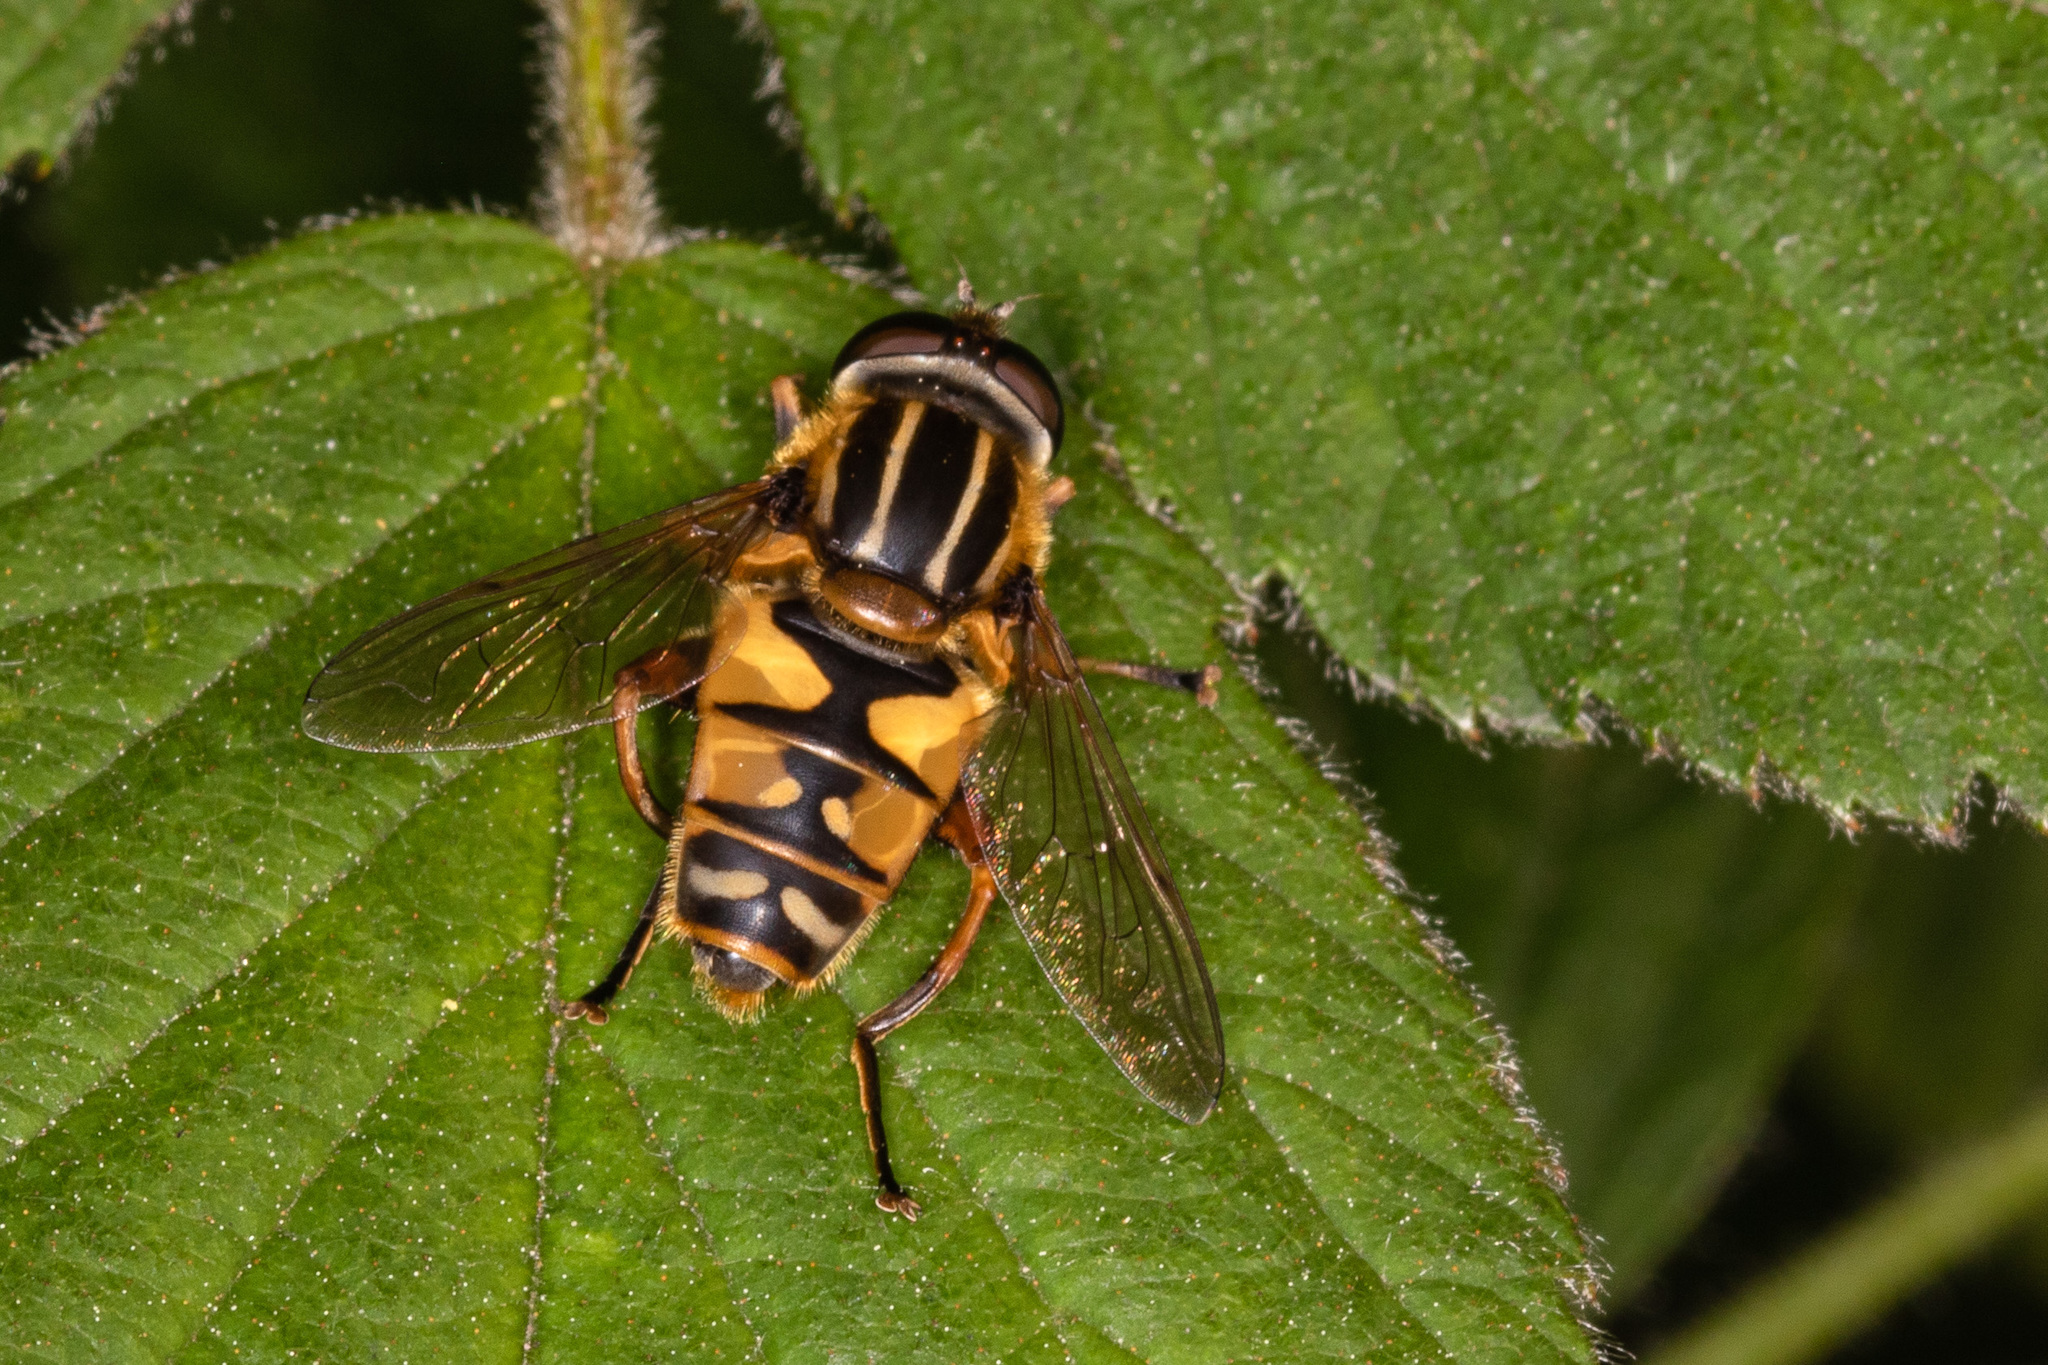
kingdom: Animalia
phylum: Arthropoda
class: Insecta
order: Diptera
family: Syrphidae
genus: Helophilus
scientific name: Helophilus pendulus
